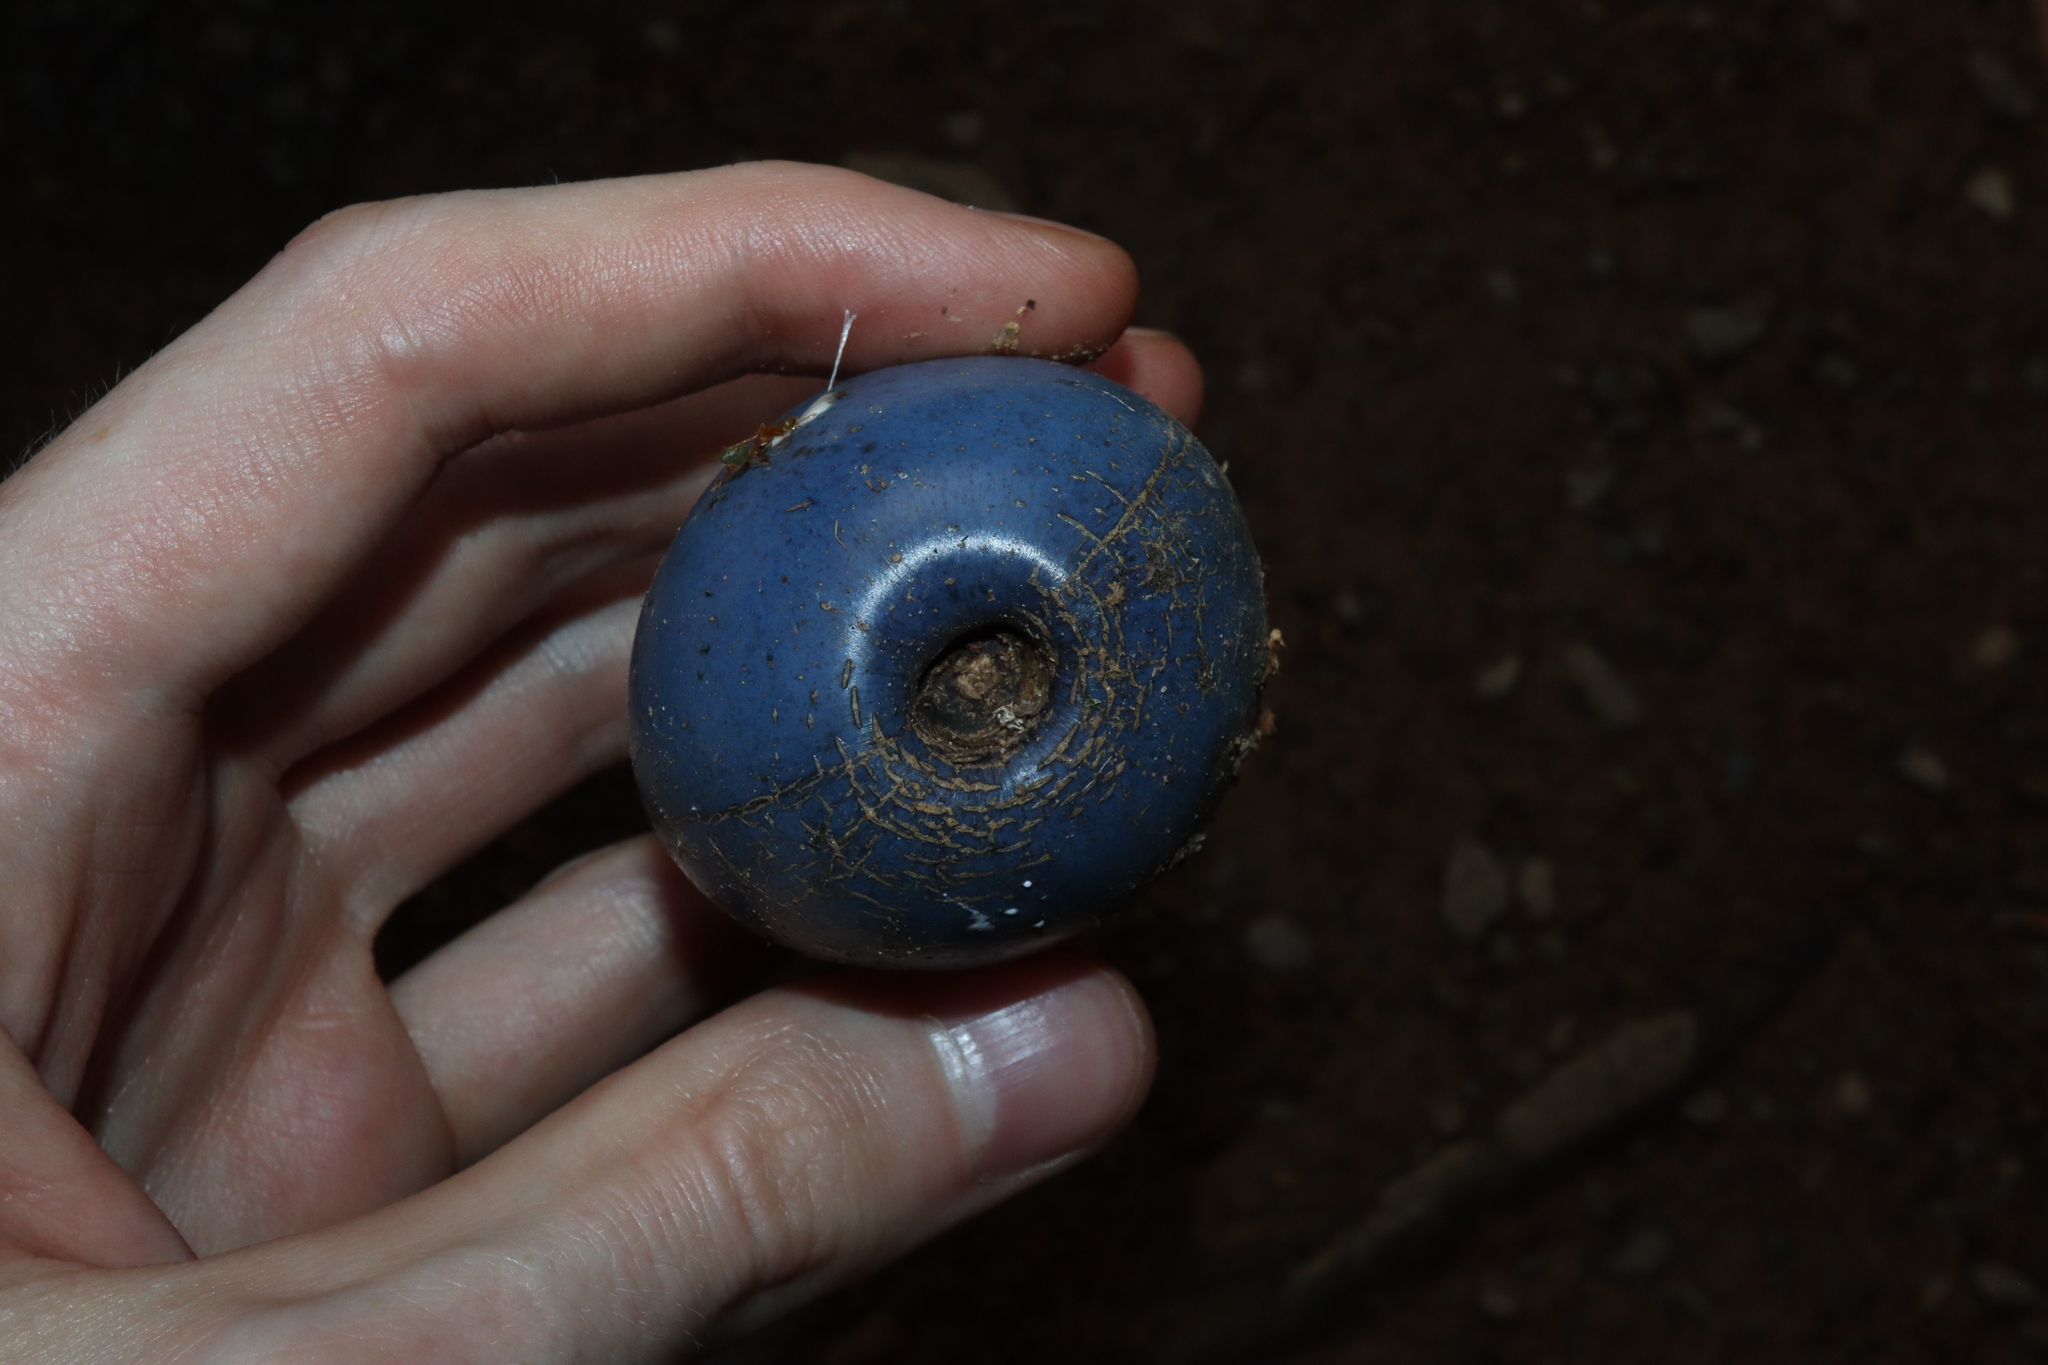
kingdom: Plantae
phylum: Tracheophyta
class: Magnoliopsida
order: Gentianales
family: Apocynaceae
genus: Cerbera
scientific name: Cerbera floribunda
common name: Cassowary plumtree
